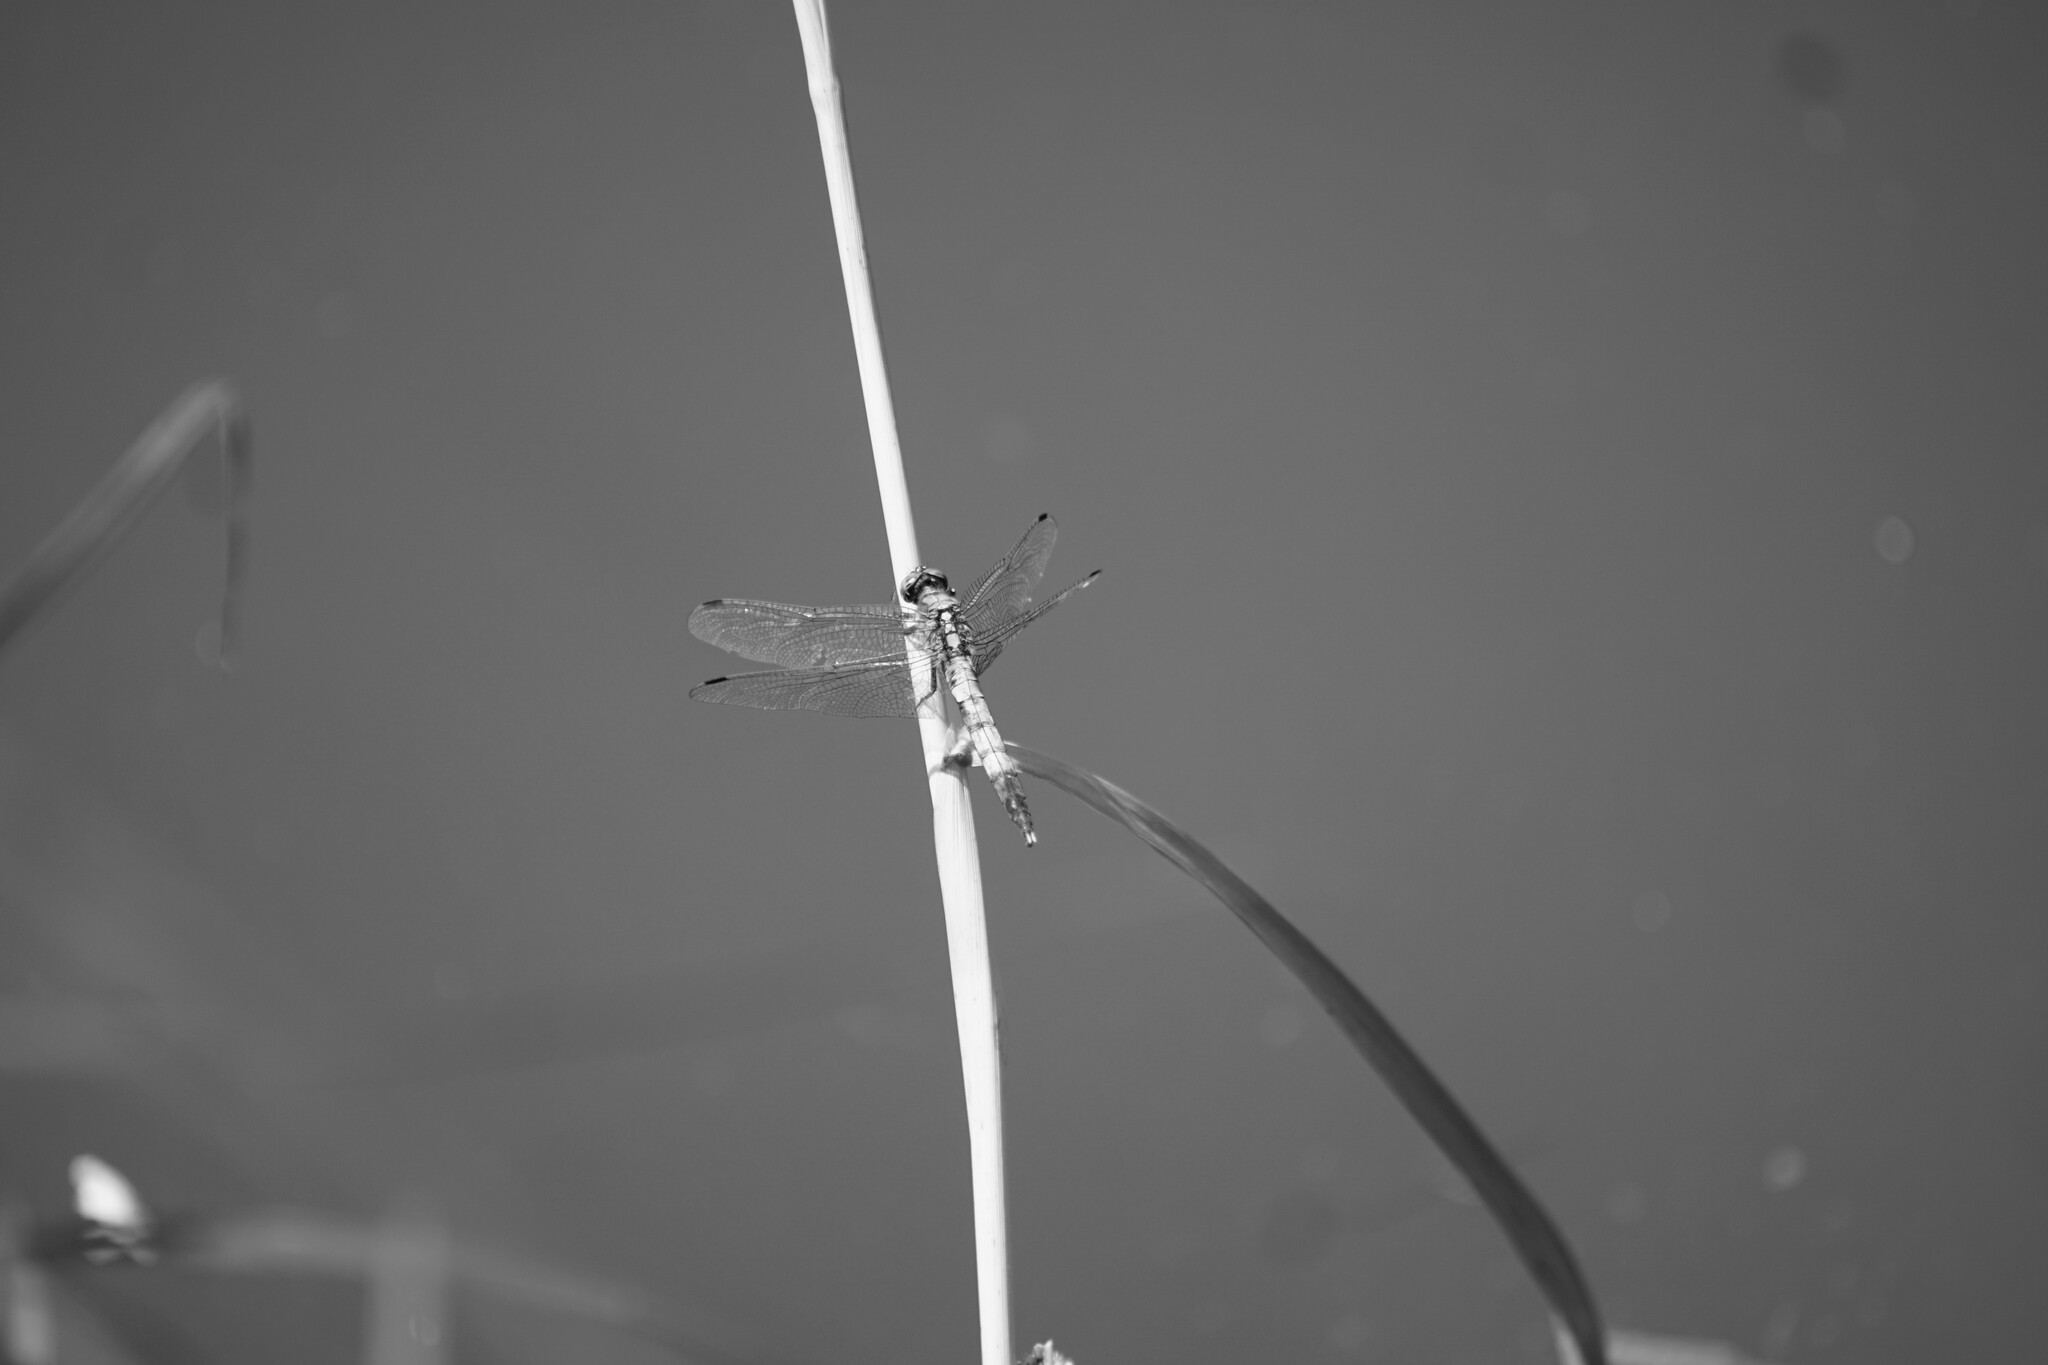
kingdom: Animalia
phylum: Arthropoda
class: Insecta
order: Odonata
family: Libellulidae
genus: Orthetrum
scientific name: Orthetrum albistylum
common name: White-tailed skimmer
